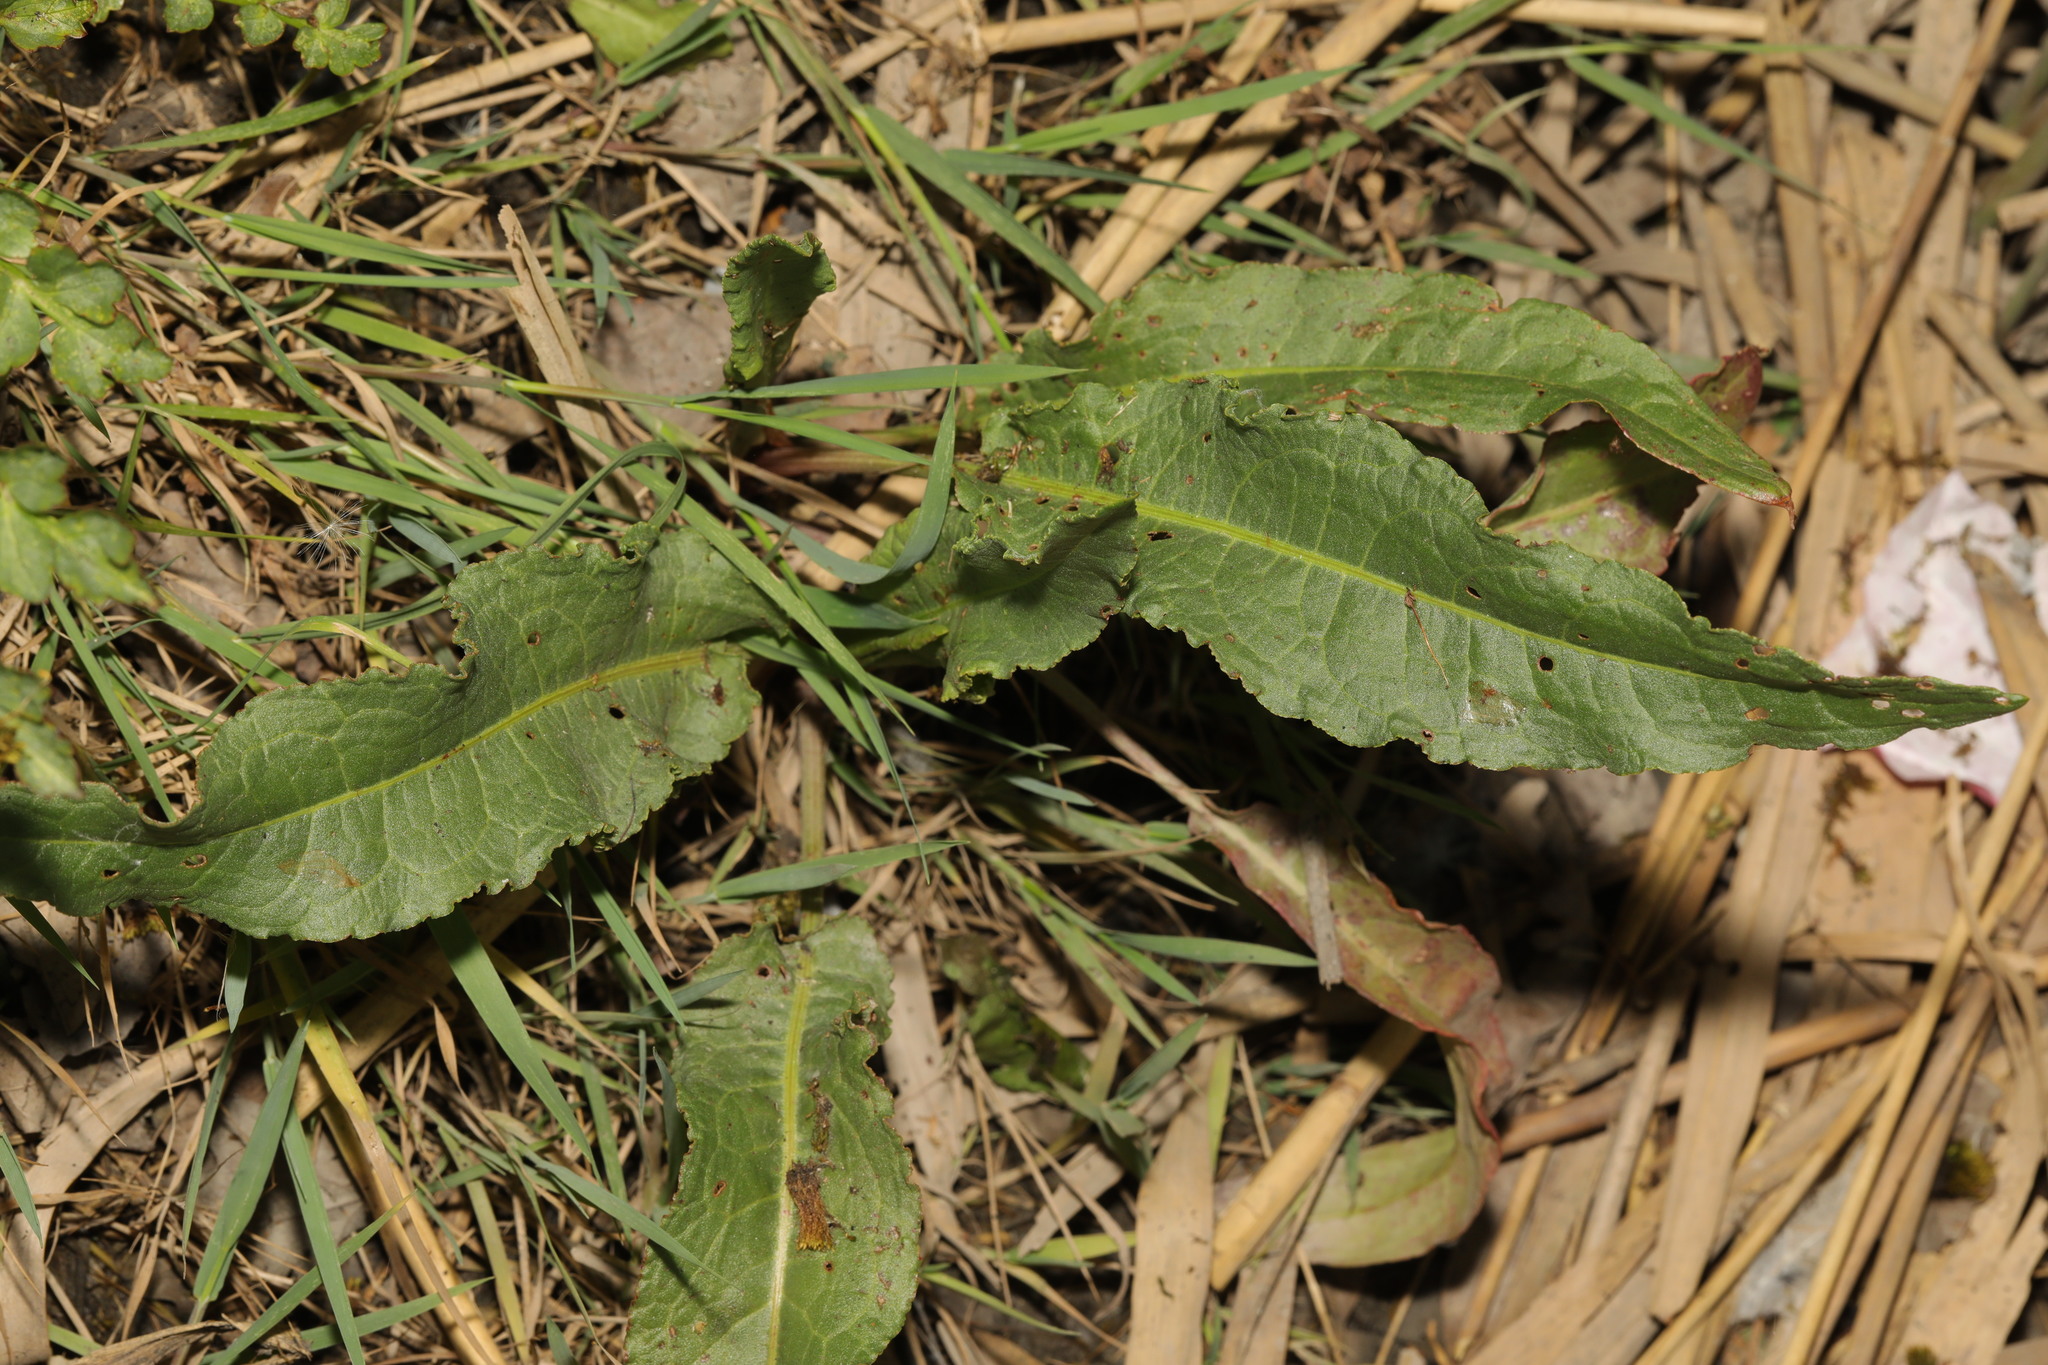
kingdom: Plantae
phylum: Tracheophyta
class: Magnoliopsida
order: Caryophyllales
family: Polygonaceae
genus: Rumex
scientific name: Rumex crispus
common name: Curled dock
